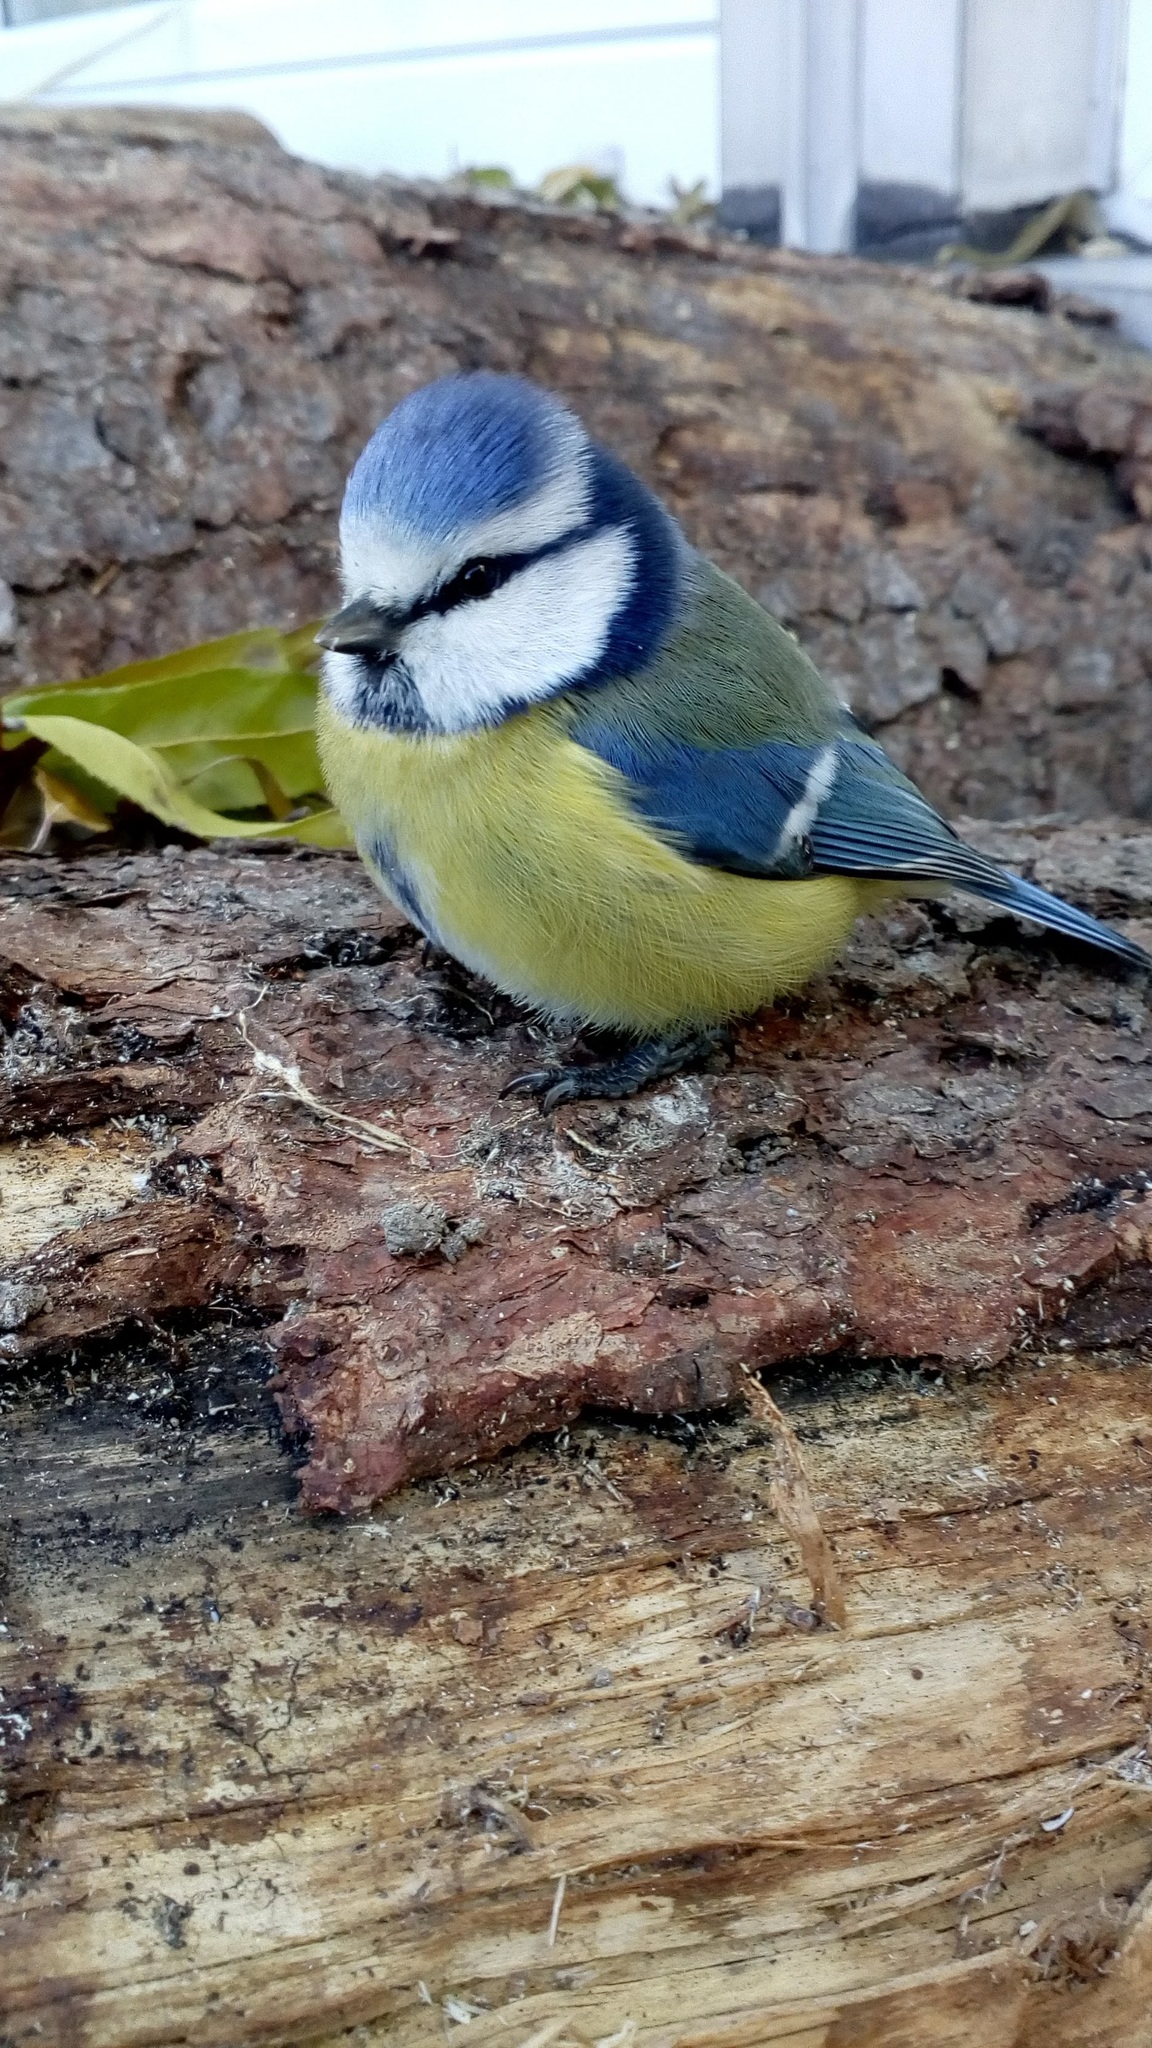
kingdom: Animalia
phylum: Chordata
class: Aves
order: Passeriformes
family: Paridae
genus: Cyanistes
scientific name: Cyanistes caeruleus
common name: Eurasian blue tit
